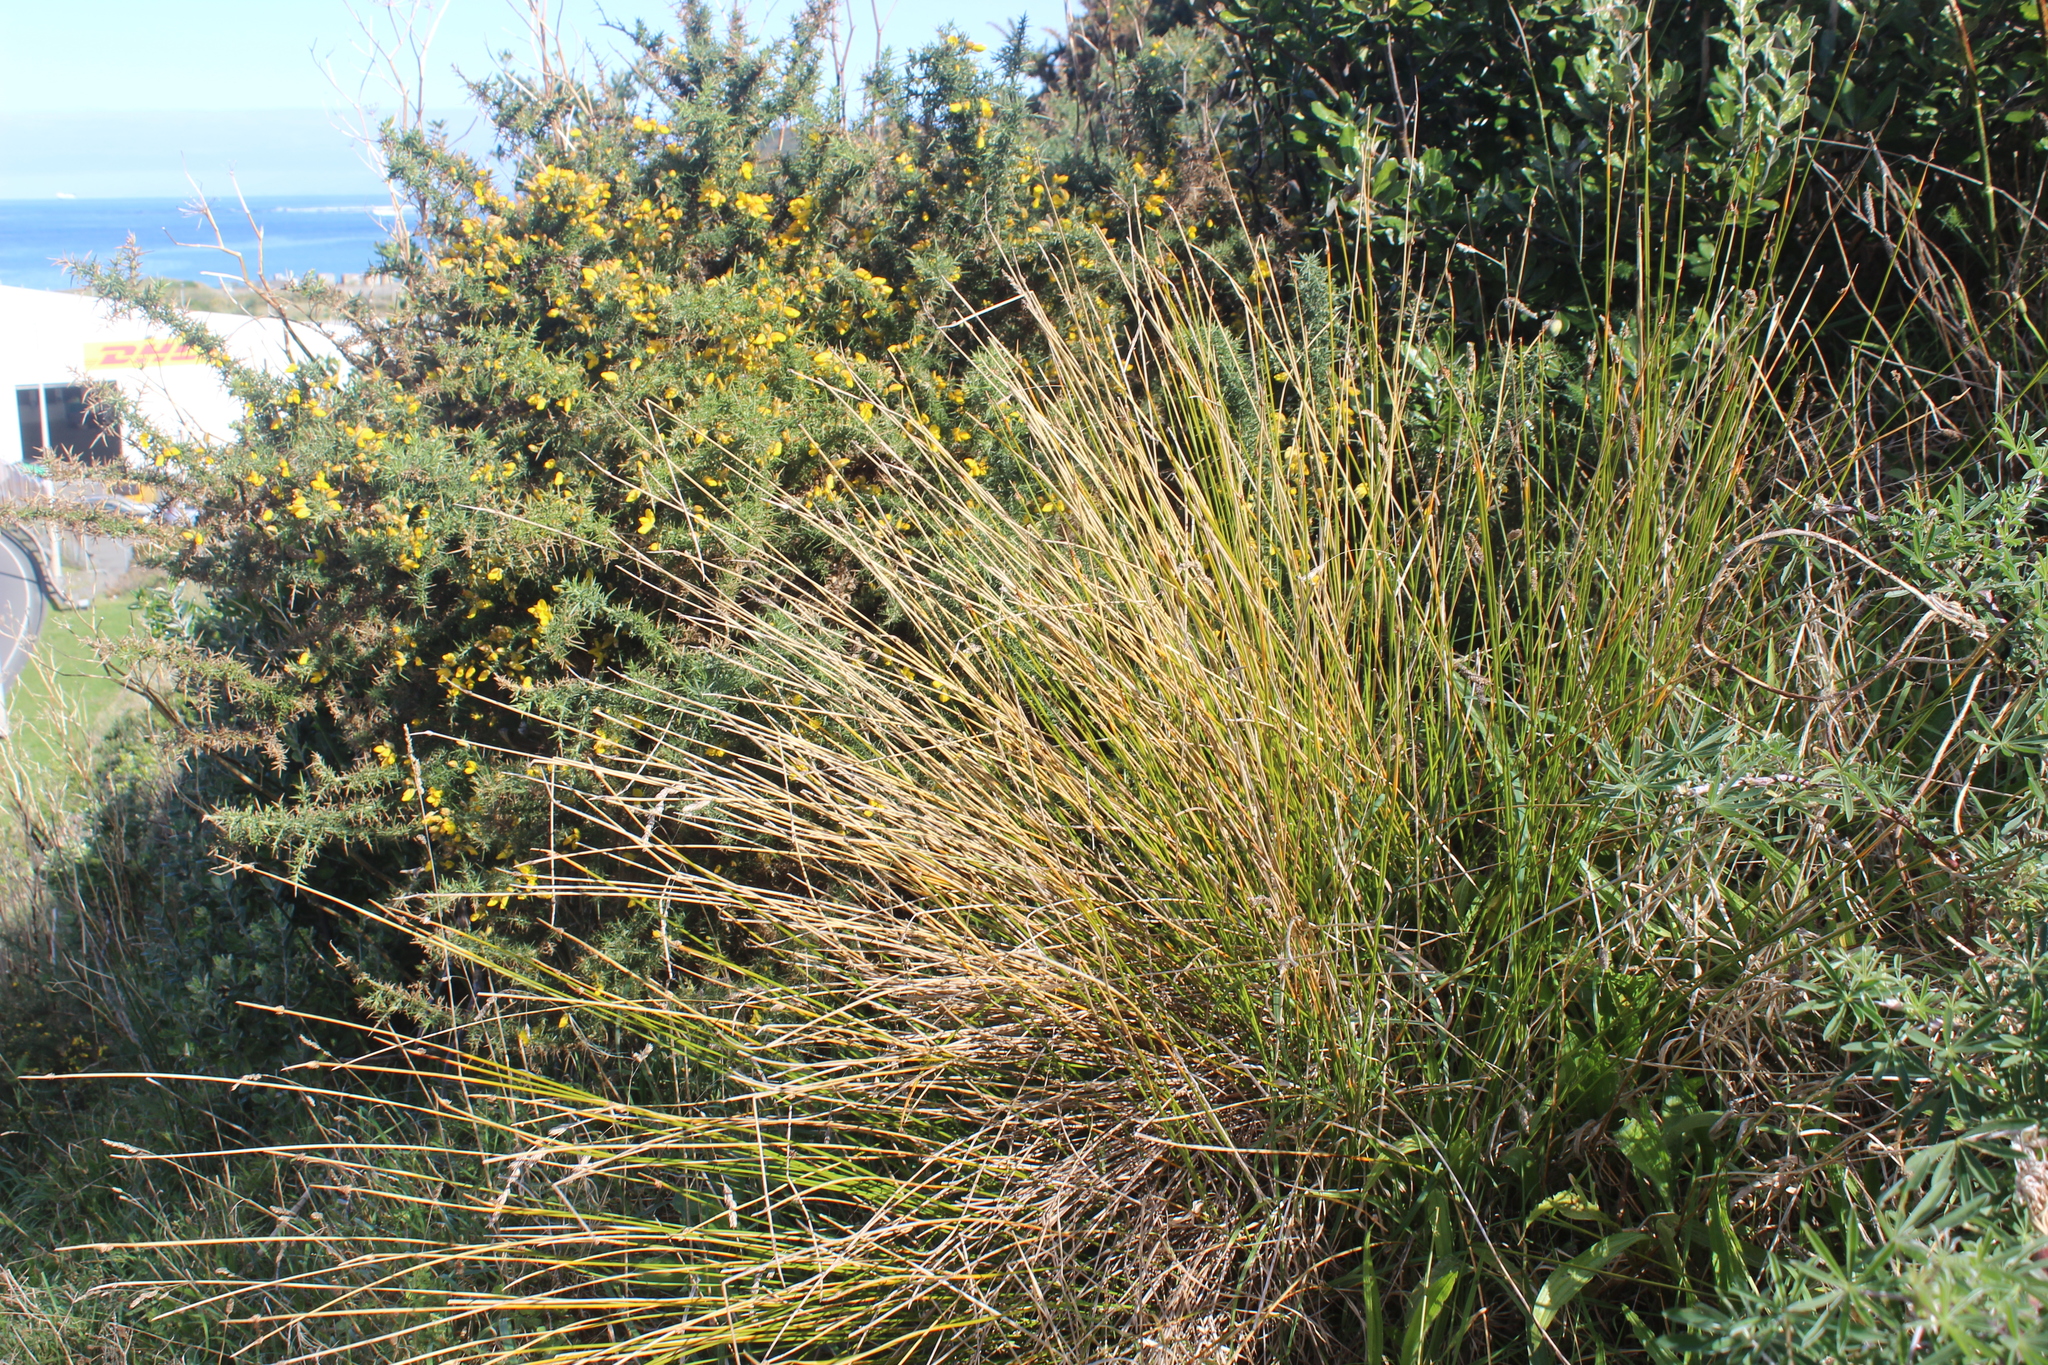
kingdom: Plantae
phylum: Tracheophyta
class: Liliopsida
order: Poales
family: Cyperaceae
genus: Ficinia
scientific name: Ficinia nodosa
